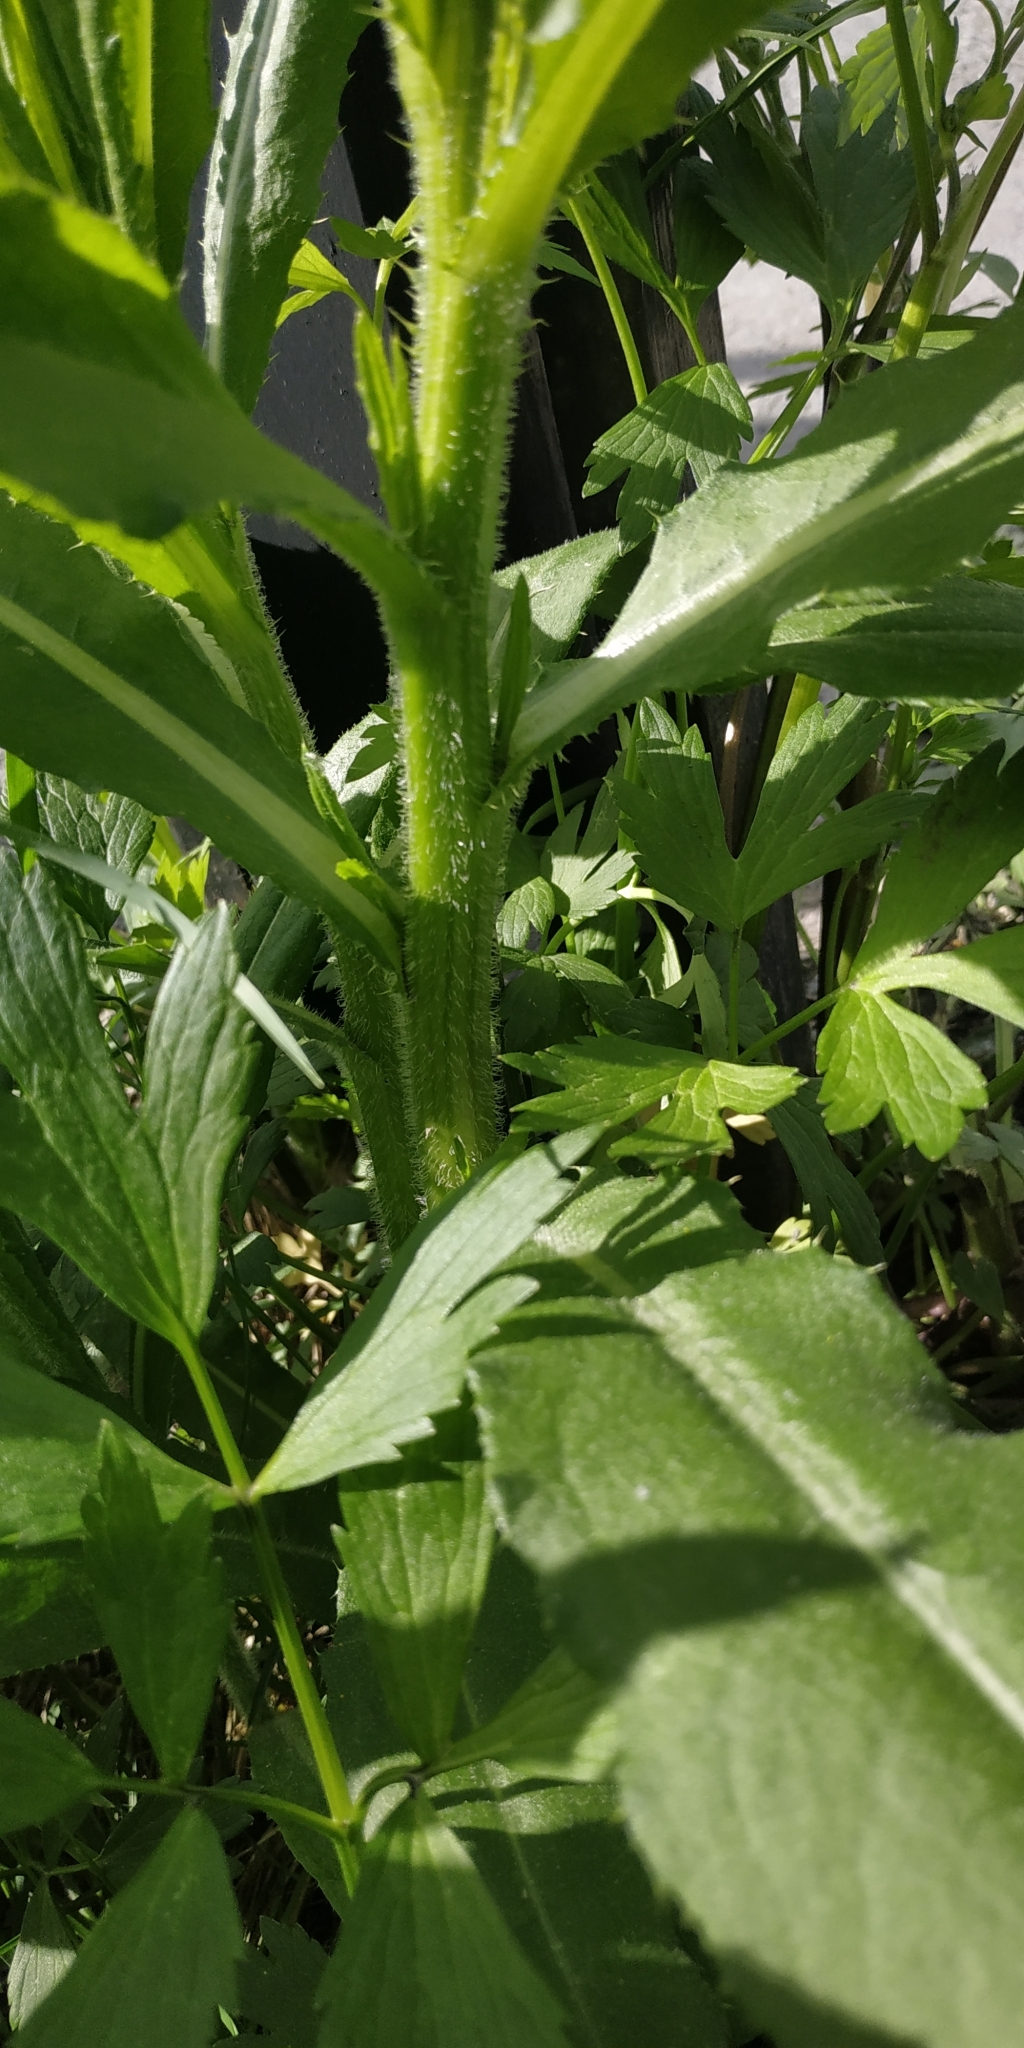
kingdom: Plantae
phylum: Tracheophyta
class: Magnoliopsida
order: Asterales
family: Asteraceae
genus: Cirsium
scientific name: Cirsium arvense
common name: Creeping thistle
